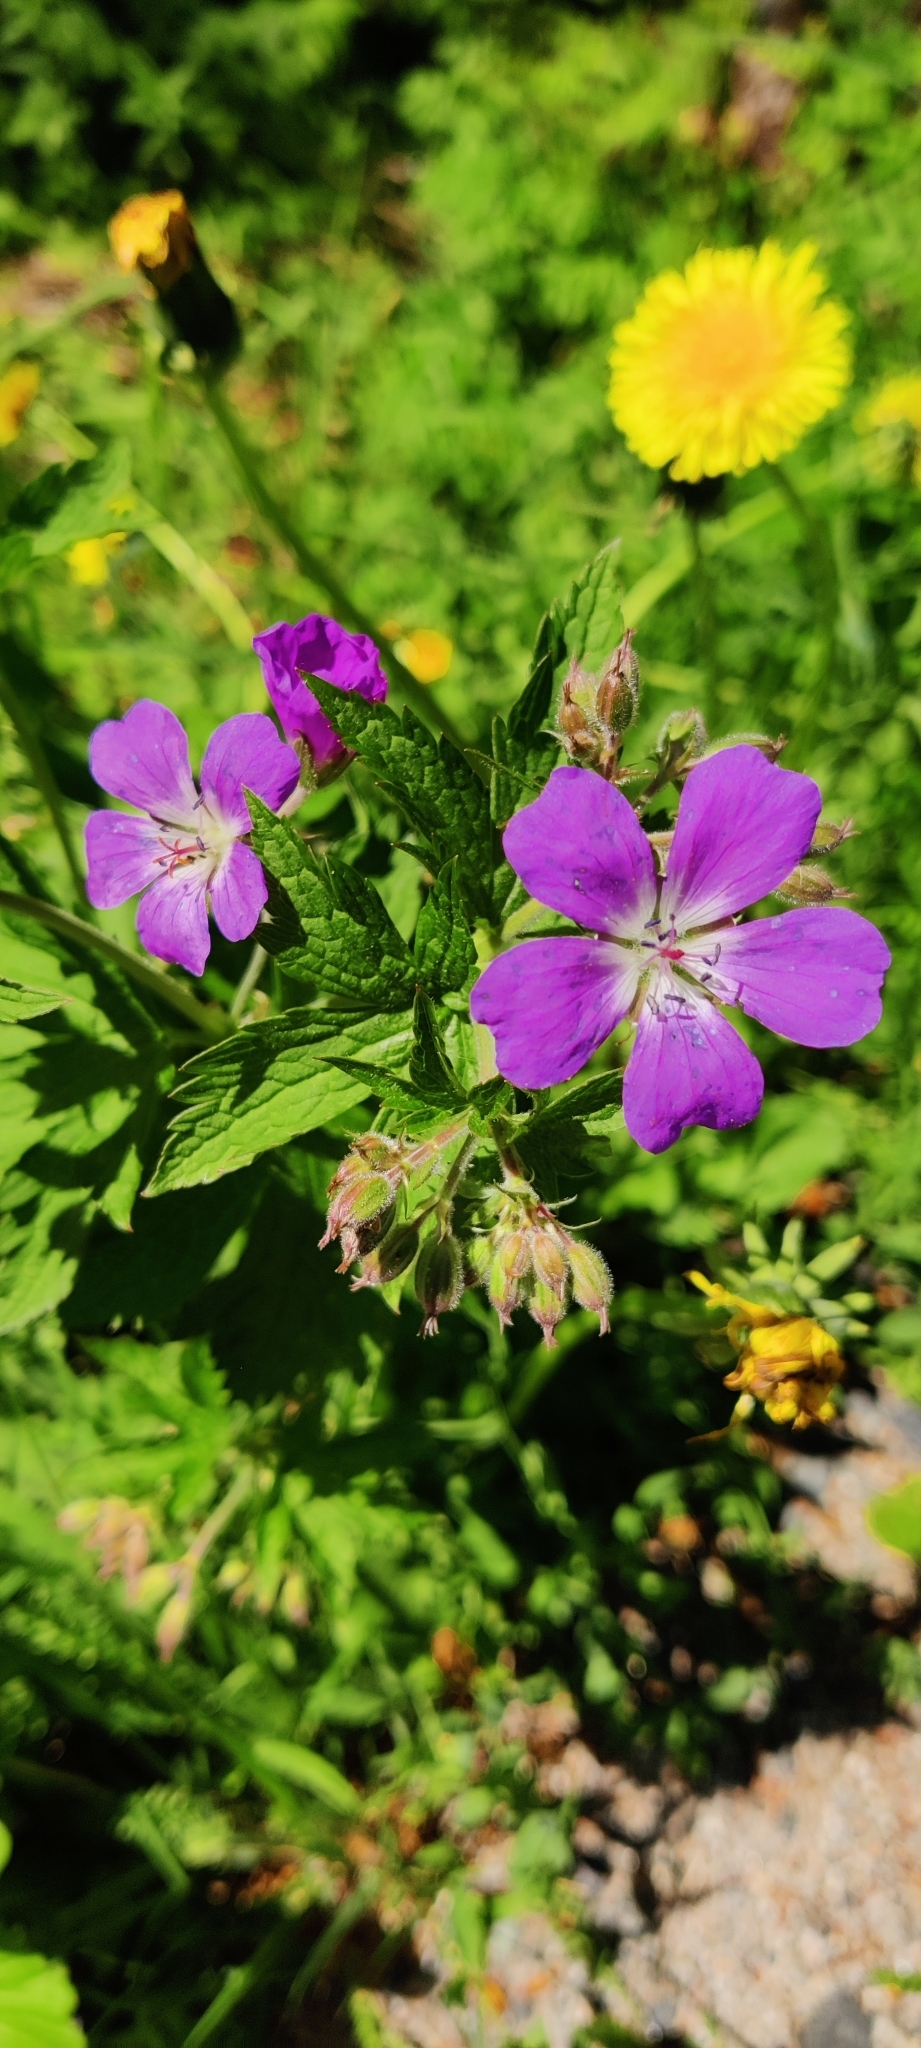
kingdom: Plantae
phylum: Tracheophyta
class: Magnoliopsida
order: Geraniales
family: Geraniaceae
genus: Geranium
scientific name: Geranium sylvaticum
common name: Wood crane's-bill
